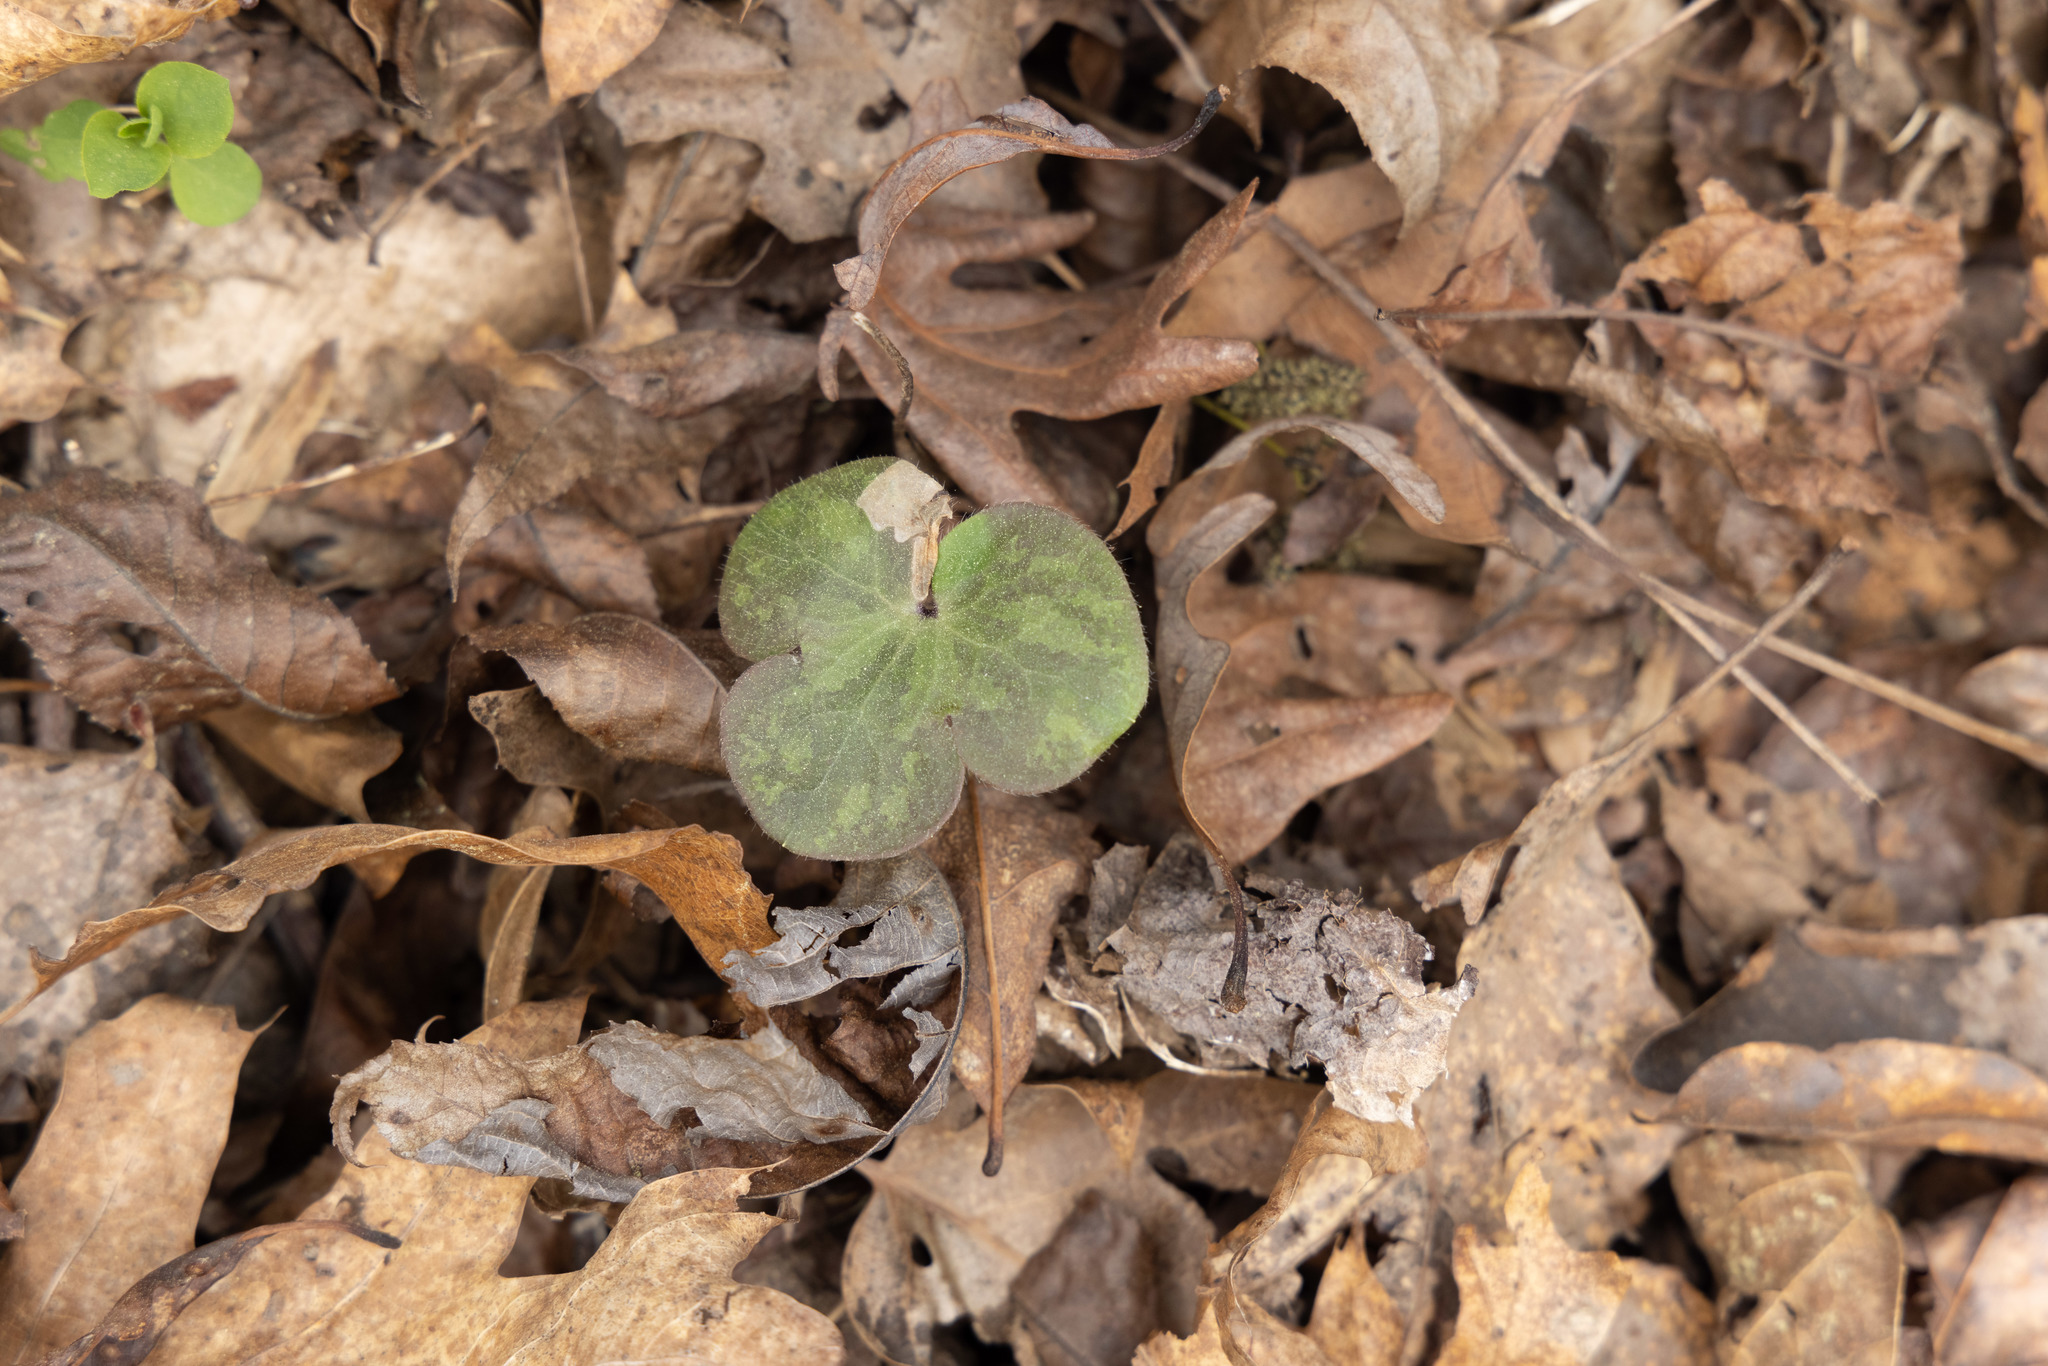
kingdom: Plantae
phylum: Tracheophyta
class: Magnoliopsida
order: Ranunculales
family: Ranunculaceae
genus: Hepatica
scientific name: Hepatica americana
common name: American hepatica
